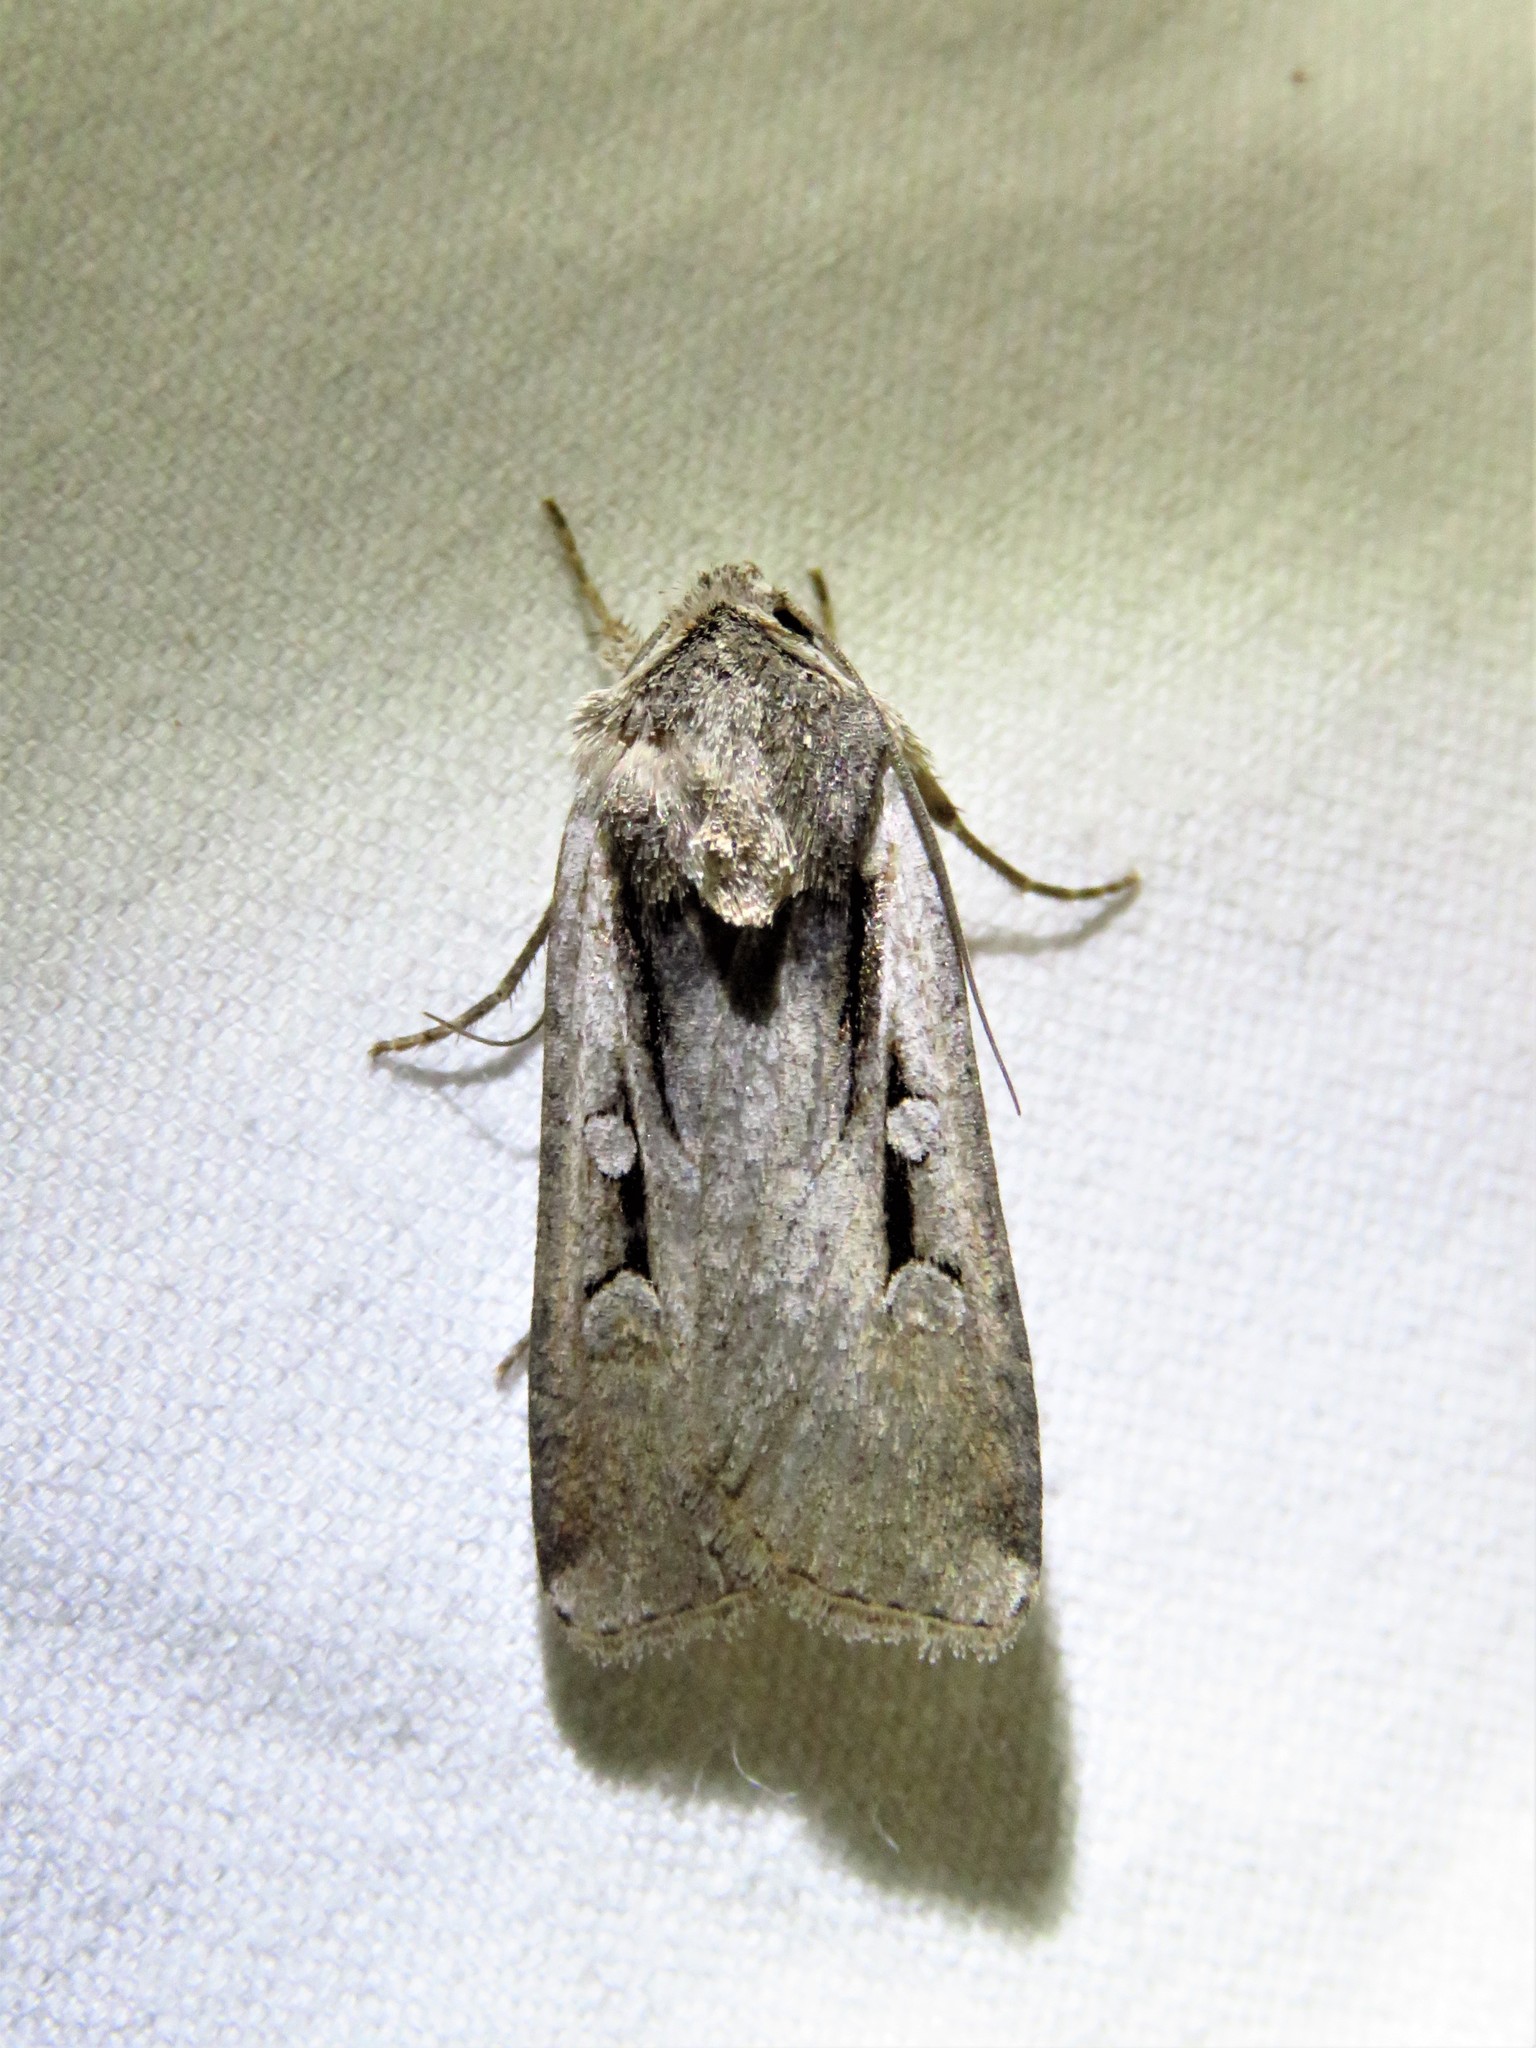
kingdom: Animalia
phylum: Arthropoda
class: Insecta
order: Lepidoptera
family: Noctuidae
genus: Hemieuxoa
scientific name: Hemieuxoa rudens
